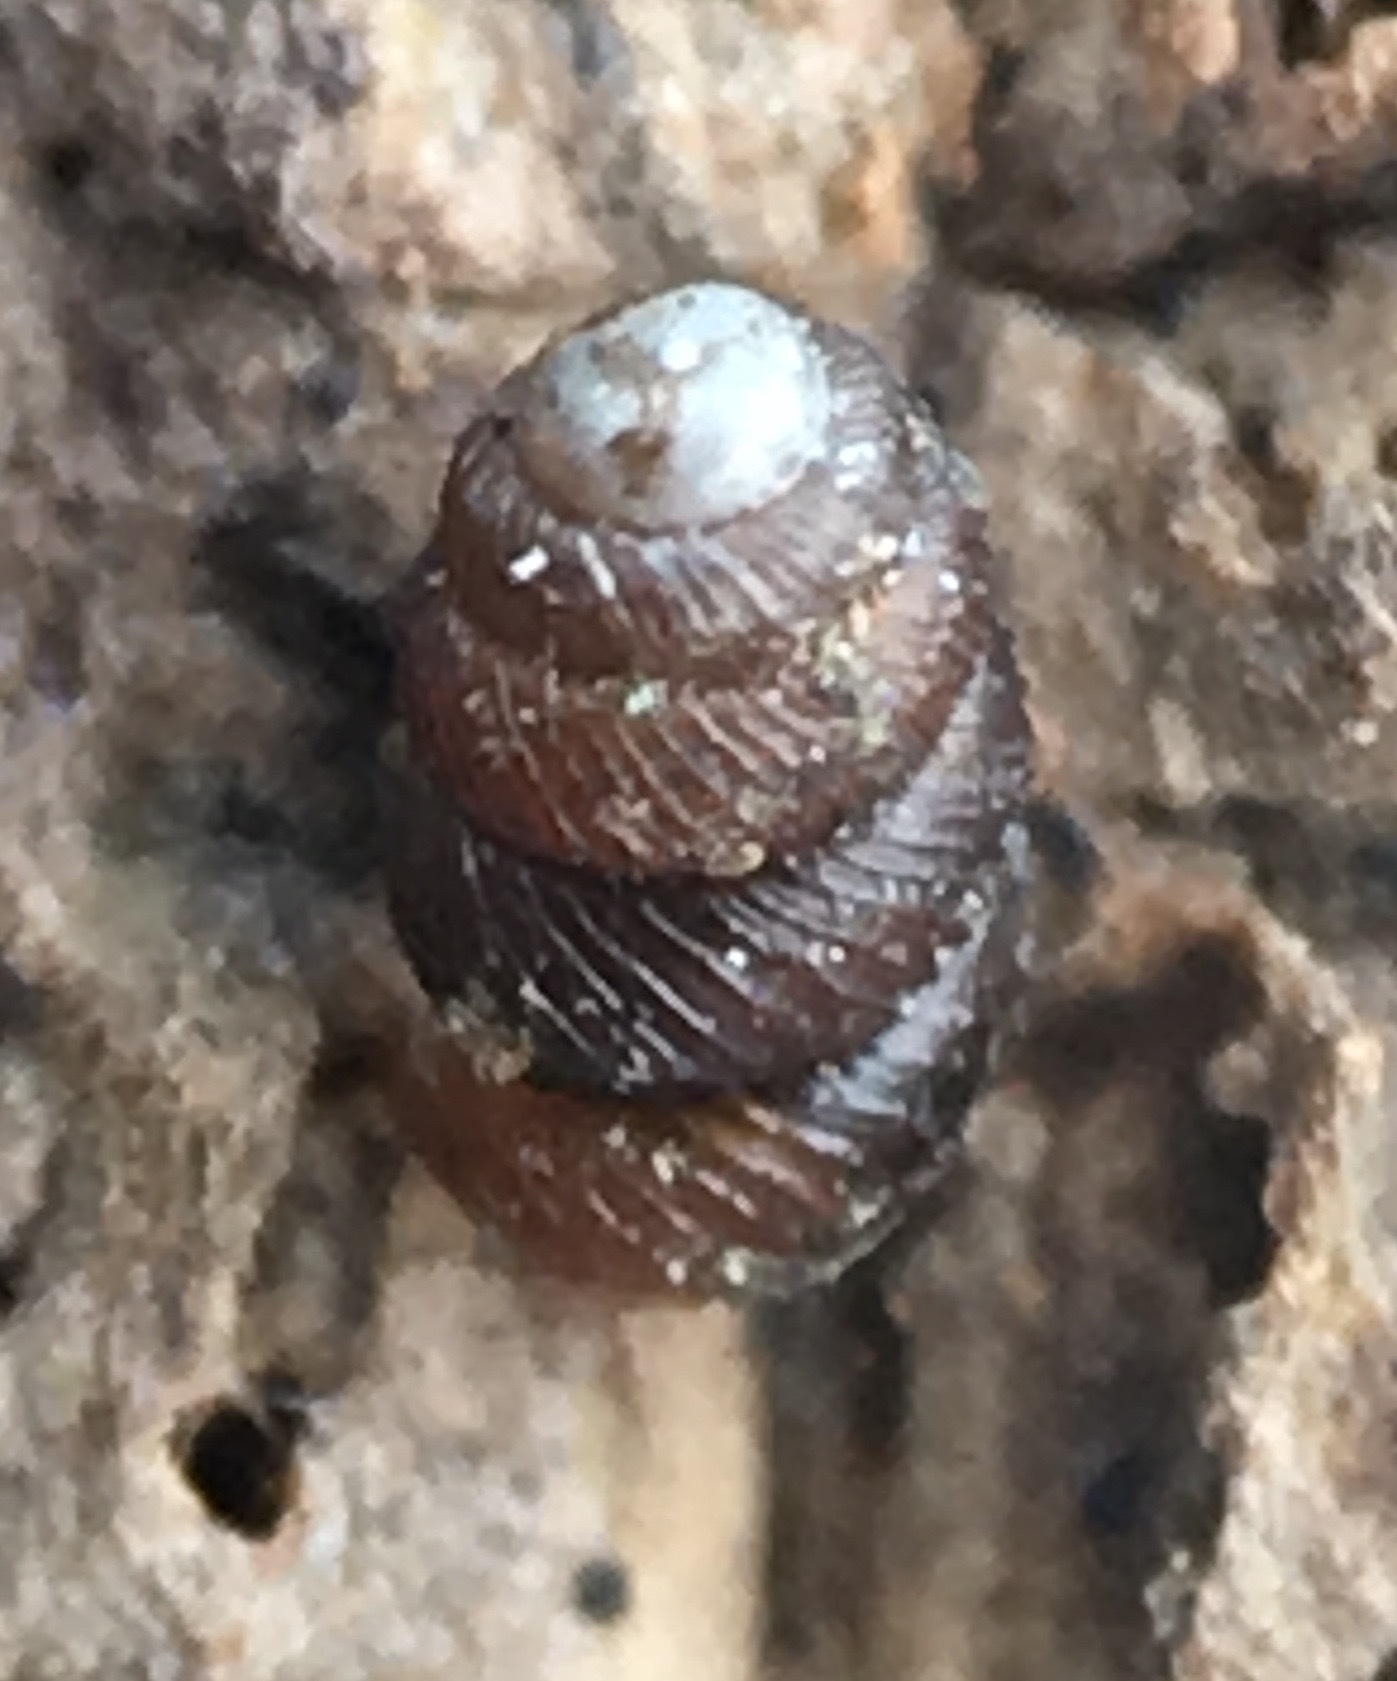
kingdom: Animalia
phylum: Mollusca
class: Gastropoda
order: Stylommatophora
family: Vertiginidae
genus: Vertigo
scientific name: Vertigo californica
